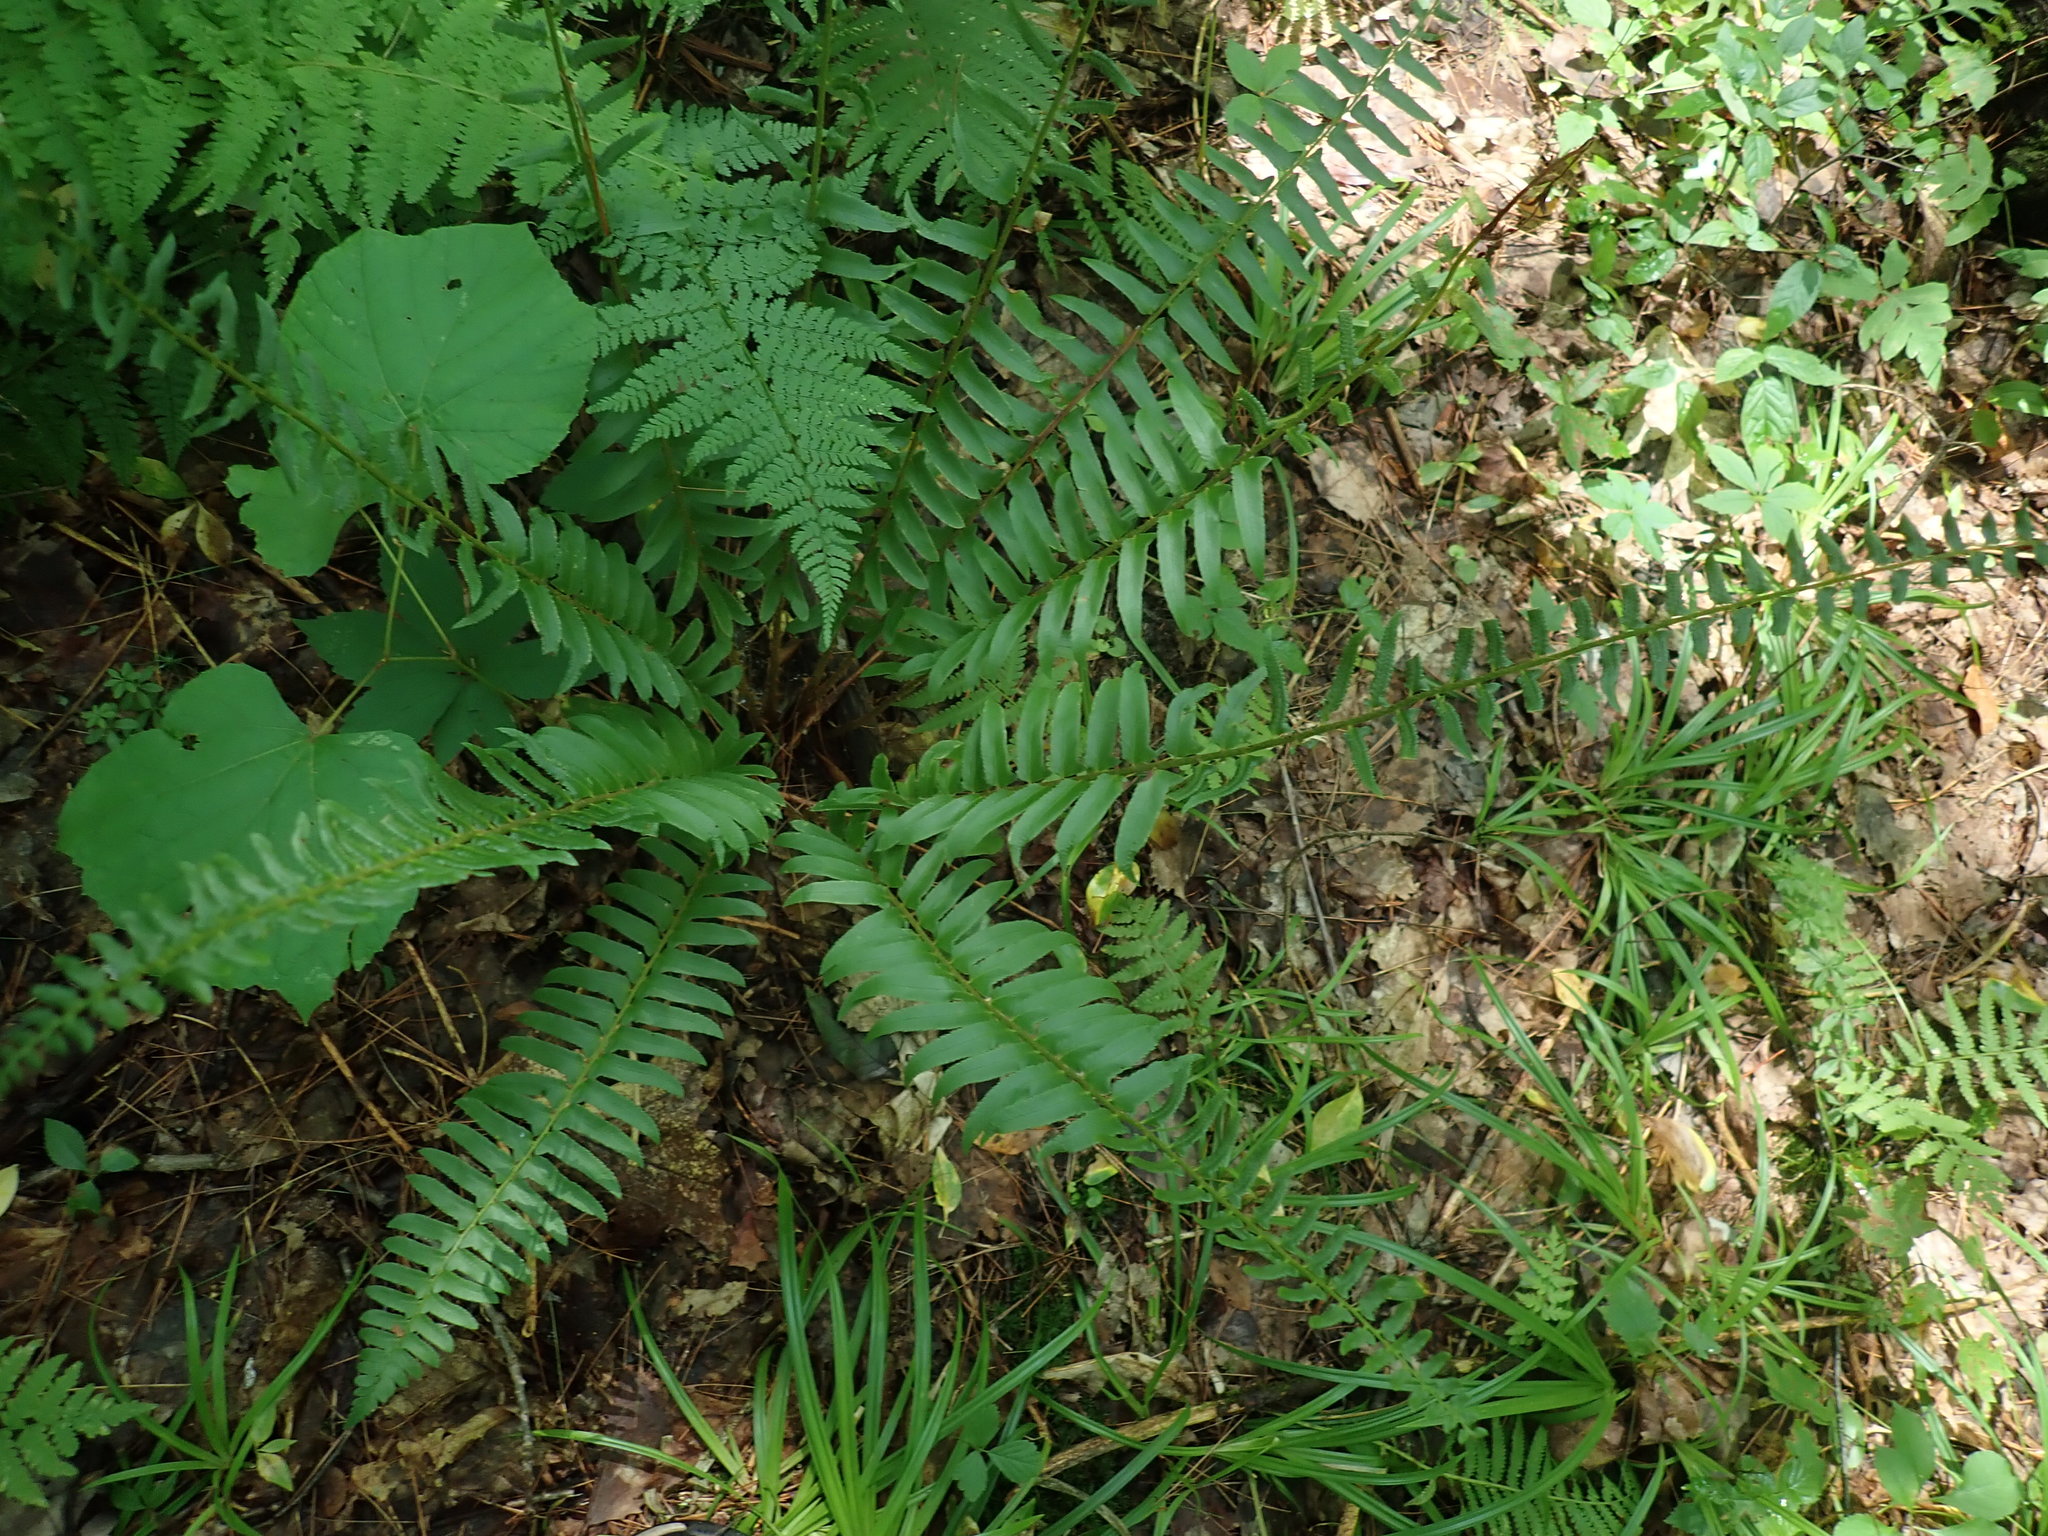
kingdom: Plantae
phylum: Tracheophyta
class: Polypodiopsida
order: Polypodiales
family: Dryopteridaceae
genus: Polystichum
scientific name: Polystichum acrostichoides
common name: Christmas fern
